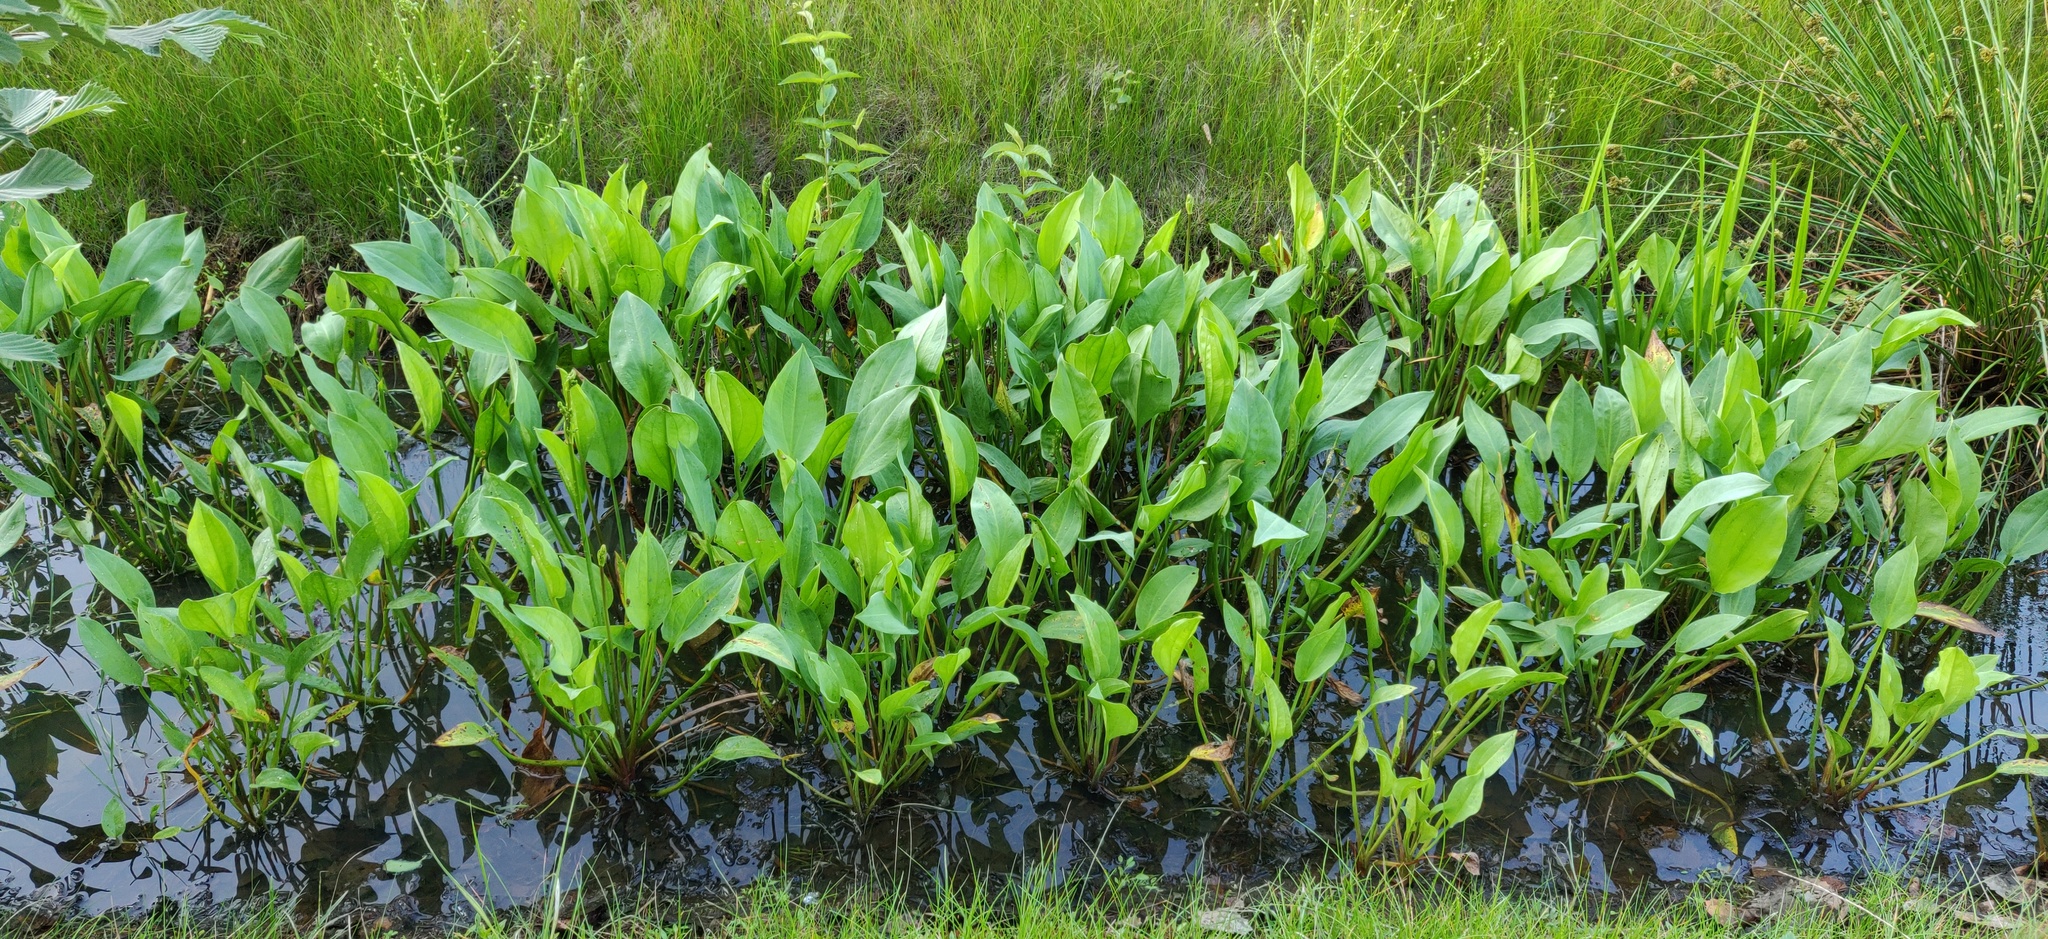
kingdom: Plantae
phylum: Tracheophyta
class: Liliopsida
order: Alismatales
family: Alismataceae
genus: Alisma
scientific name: Alisma plantago-aquatica
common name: Water-plantain
